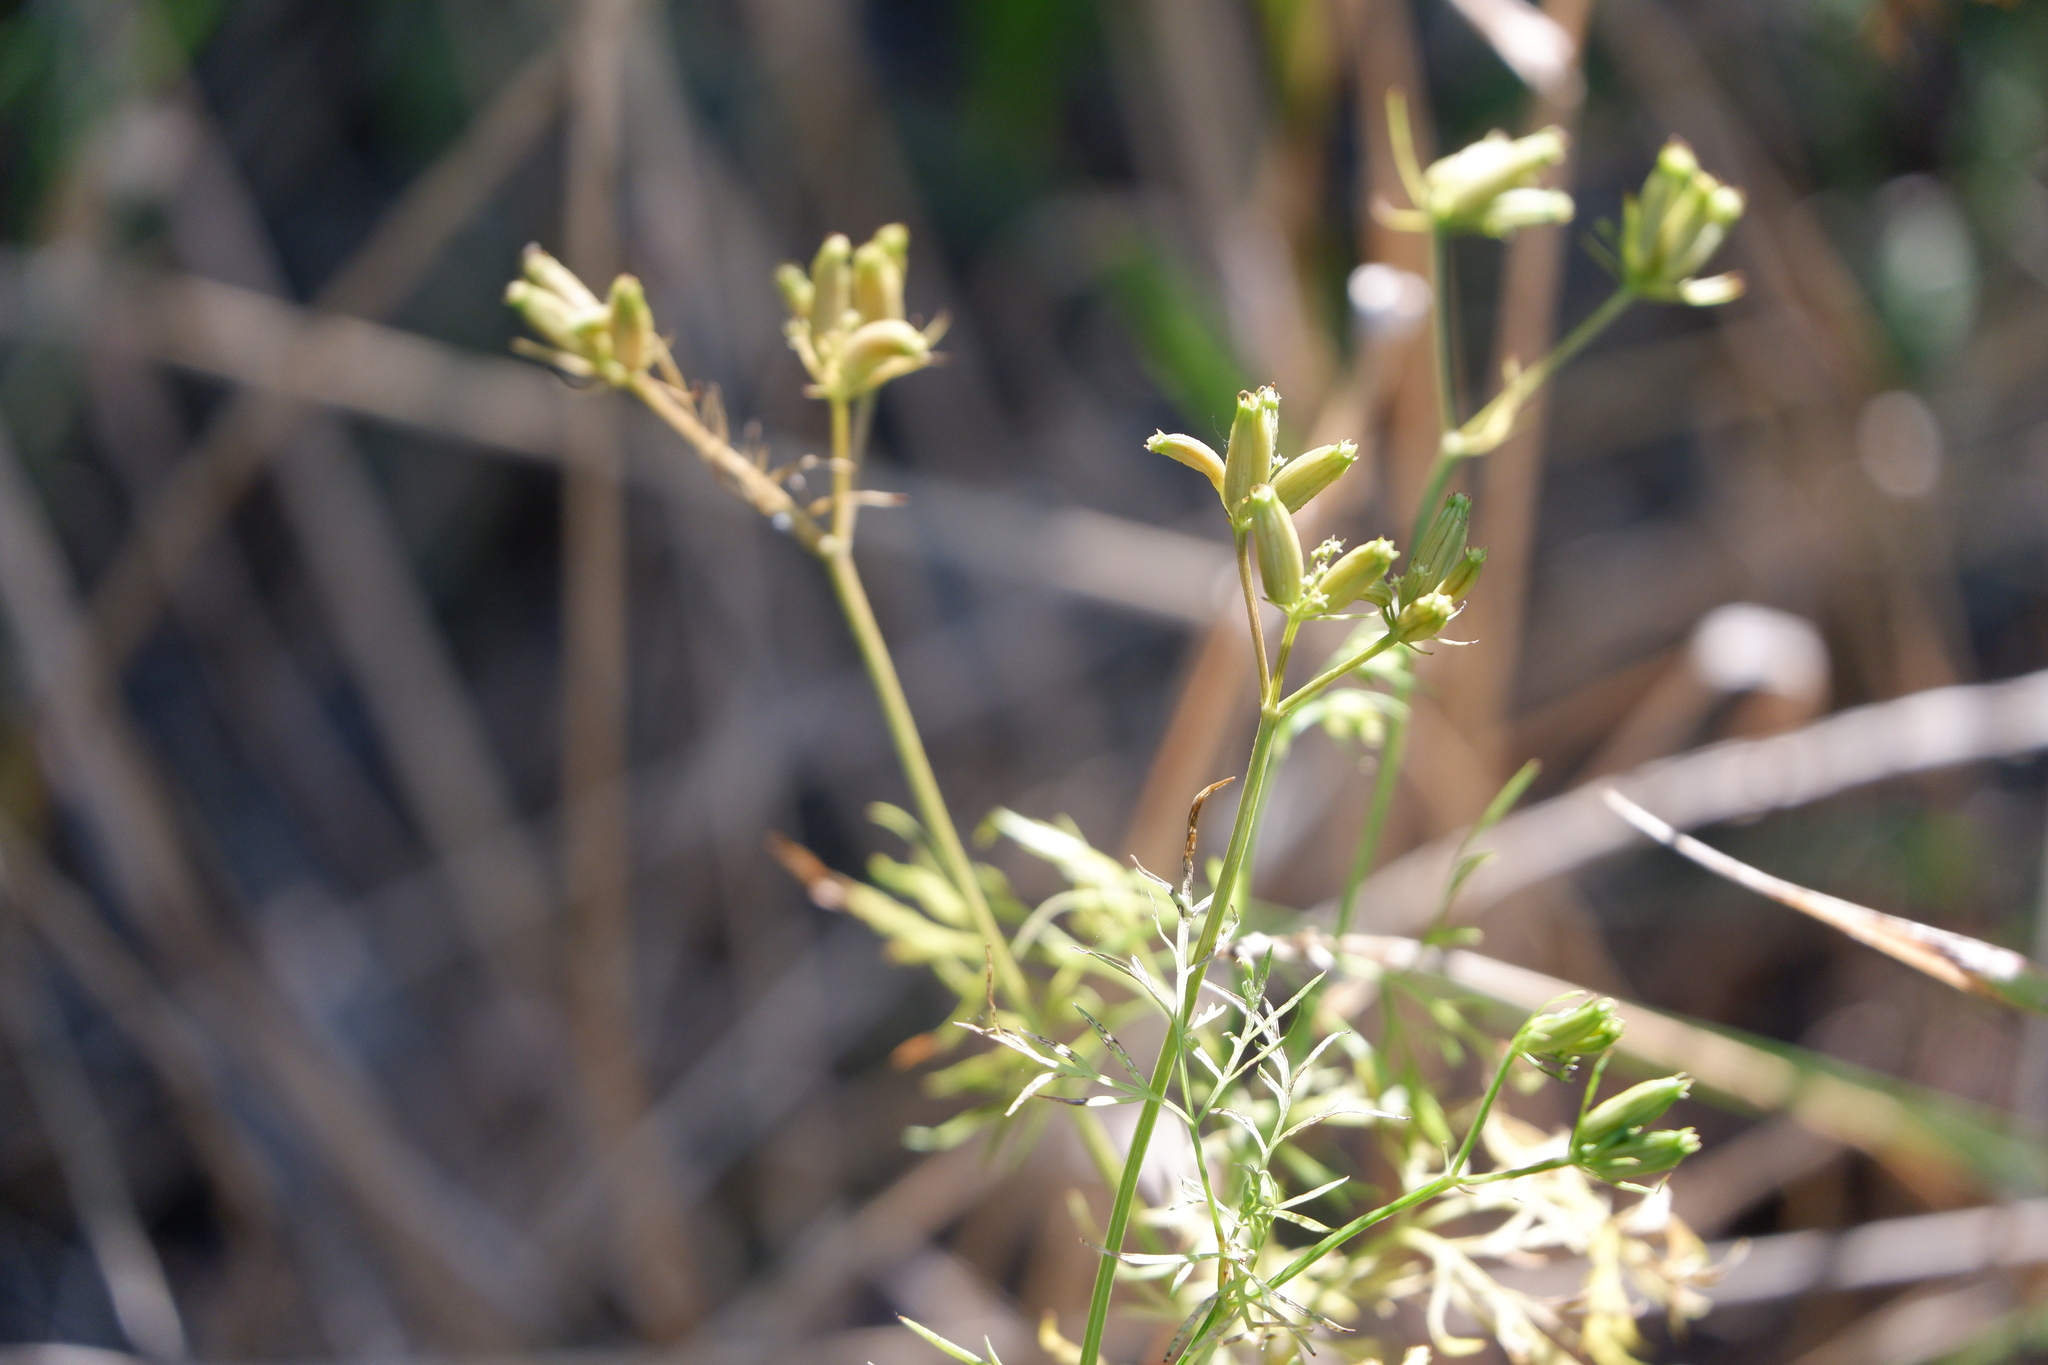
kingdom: Plantae
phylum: Tracheophyta
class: Magnoliopsida
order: Apiales
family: Apiaceae
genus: Trepocarpus
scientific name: Trepocarpus aethusae
